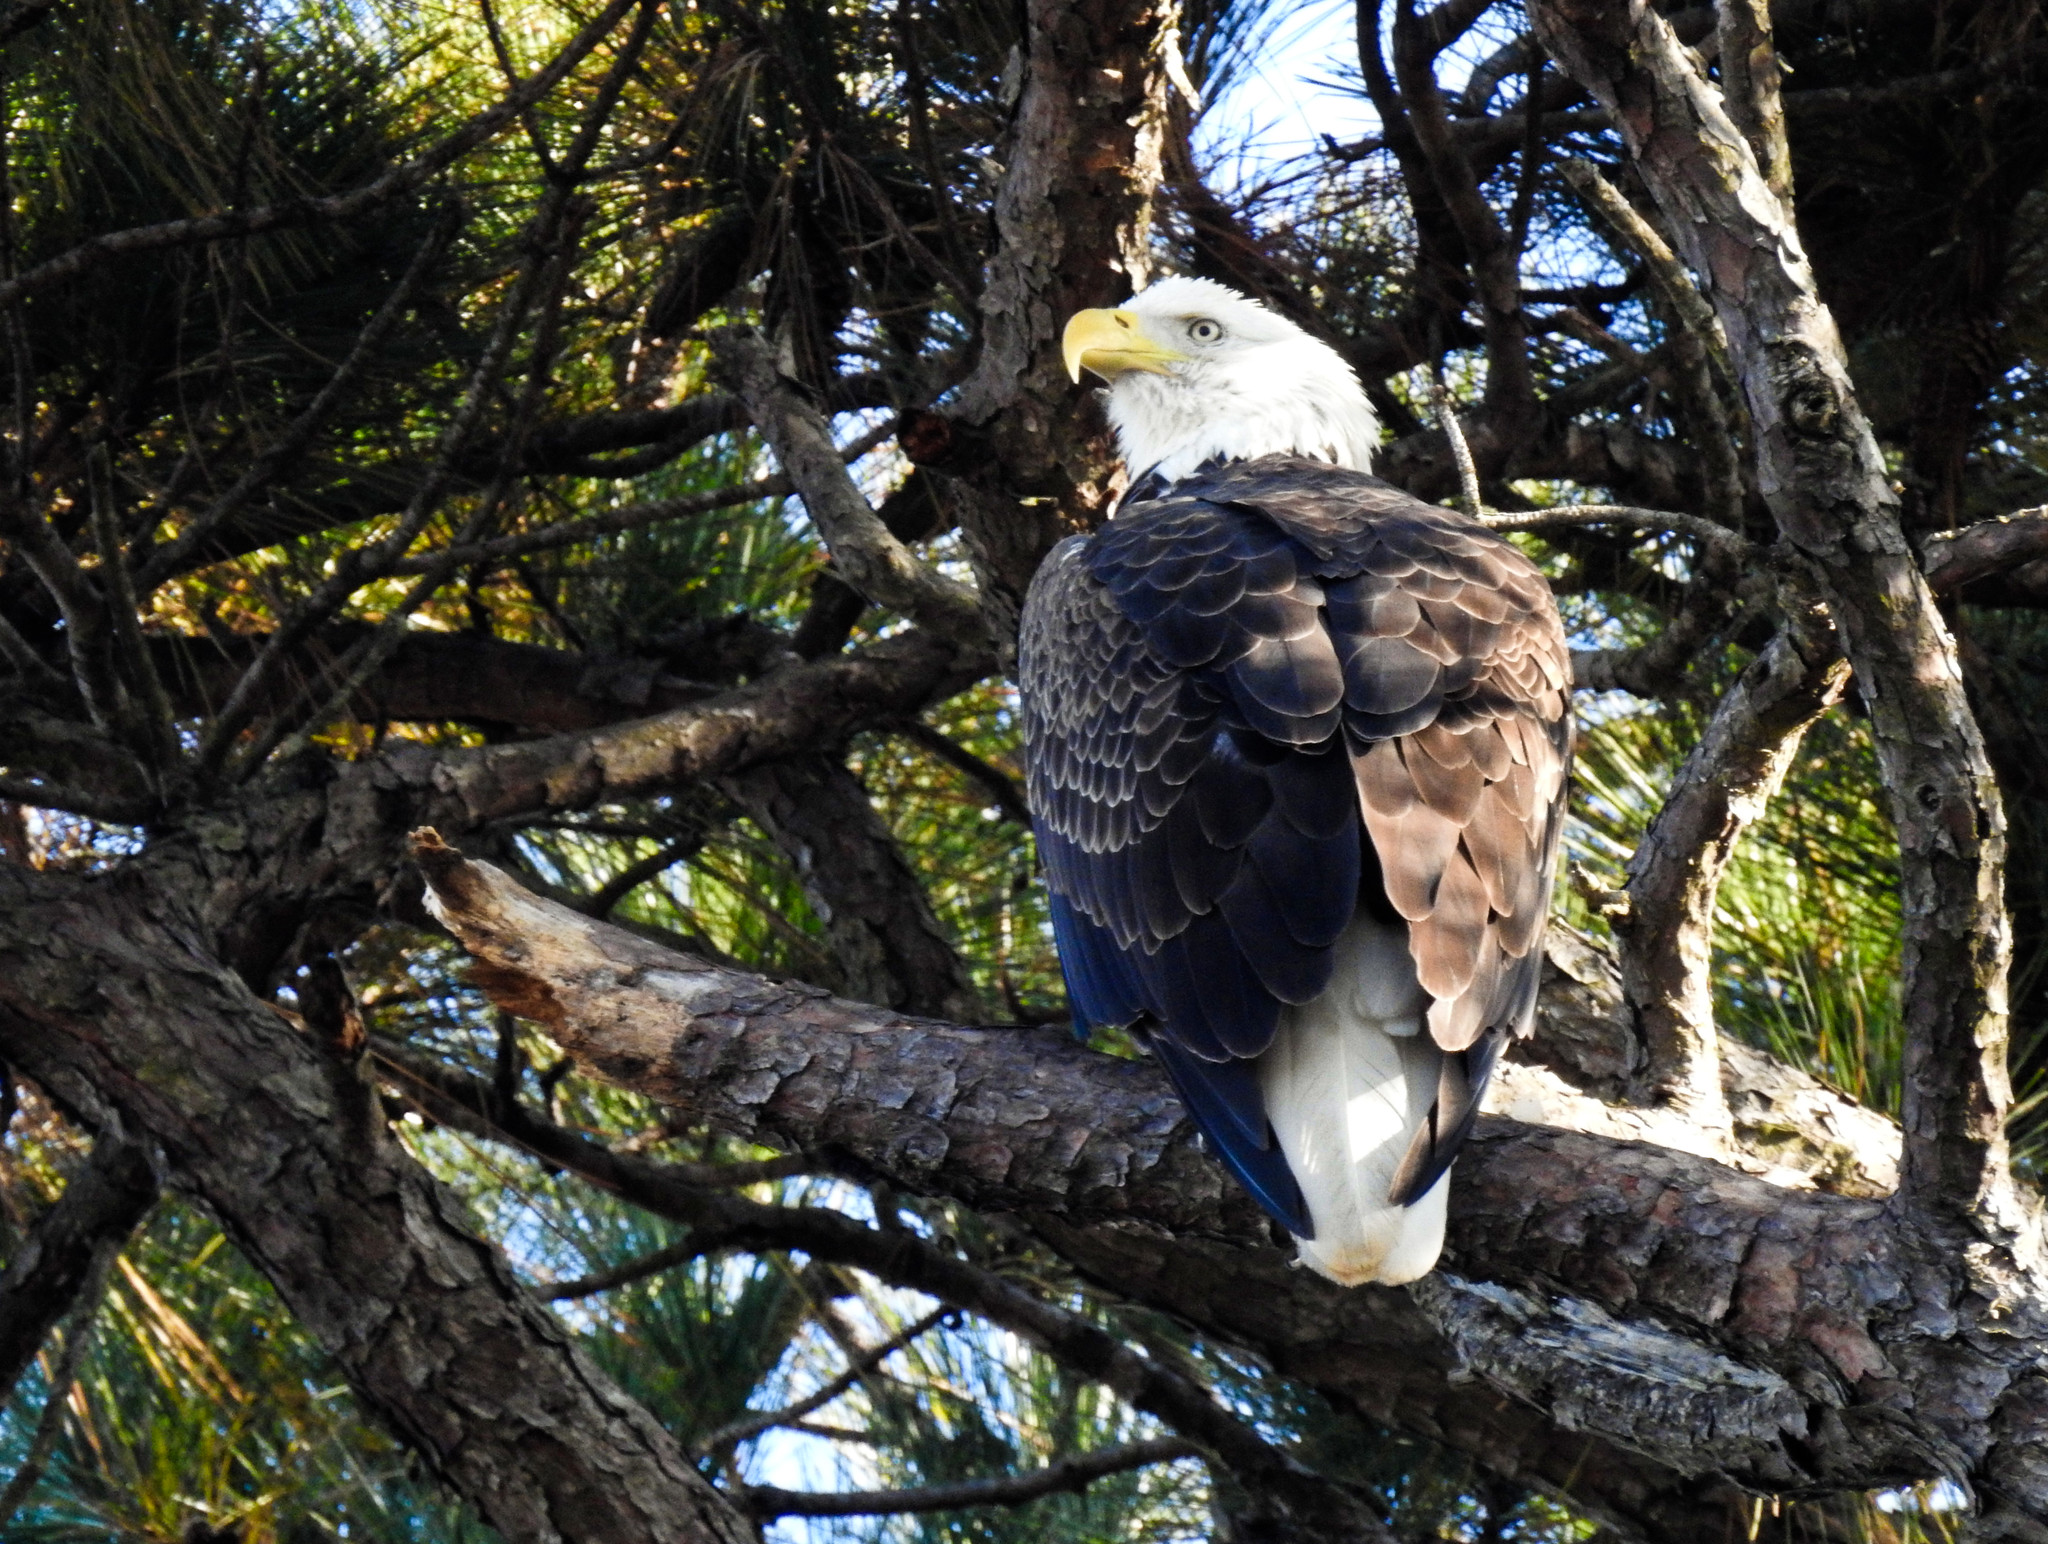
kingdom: Animalia
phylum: Chordata
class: Aves
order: Accipitriformes
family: Accipitridae
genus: Haliaeetus
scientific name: Haliaeetus leucocephalus
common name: Bald eagle
